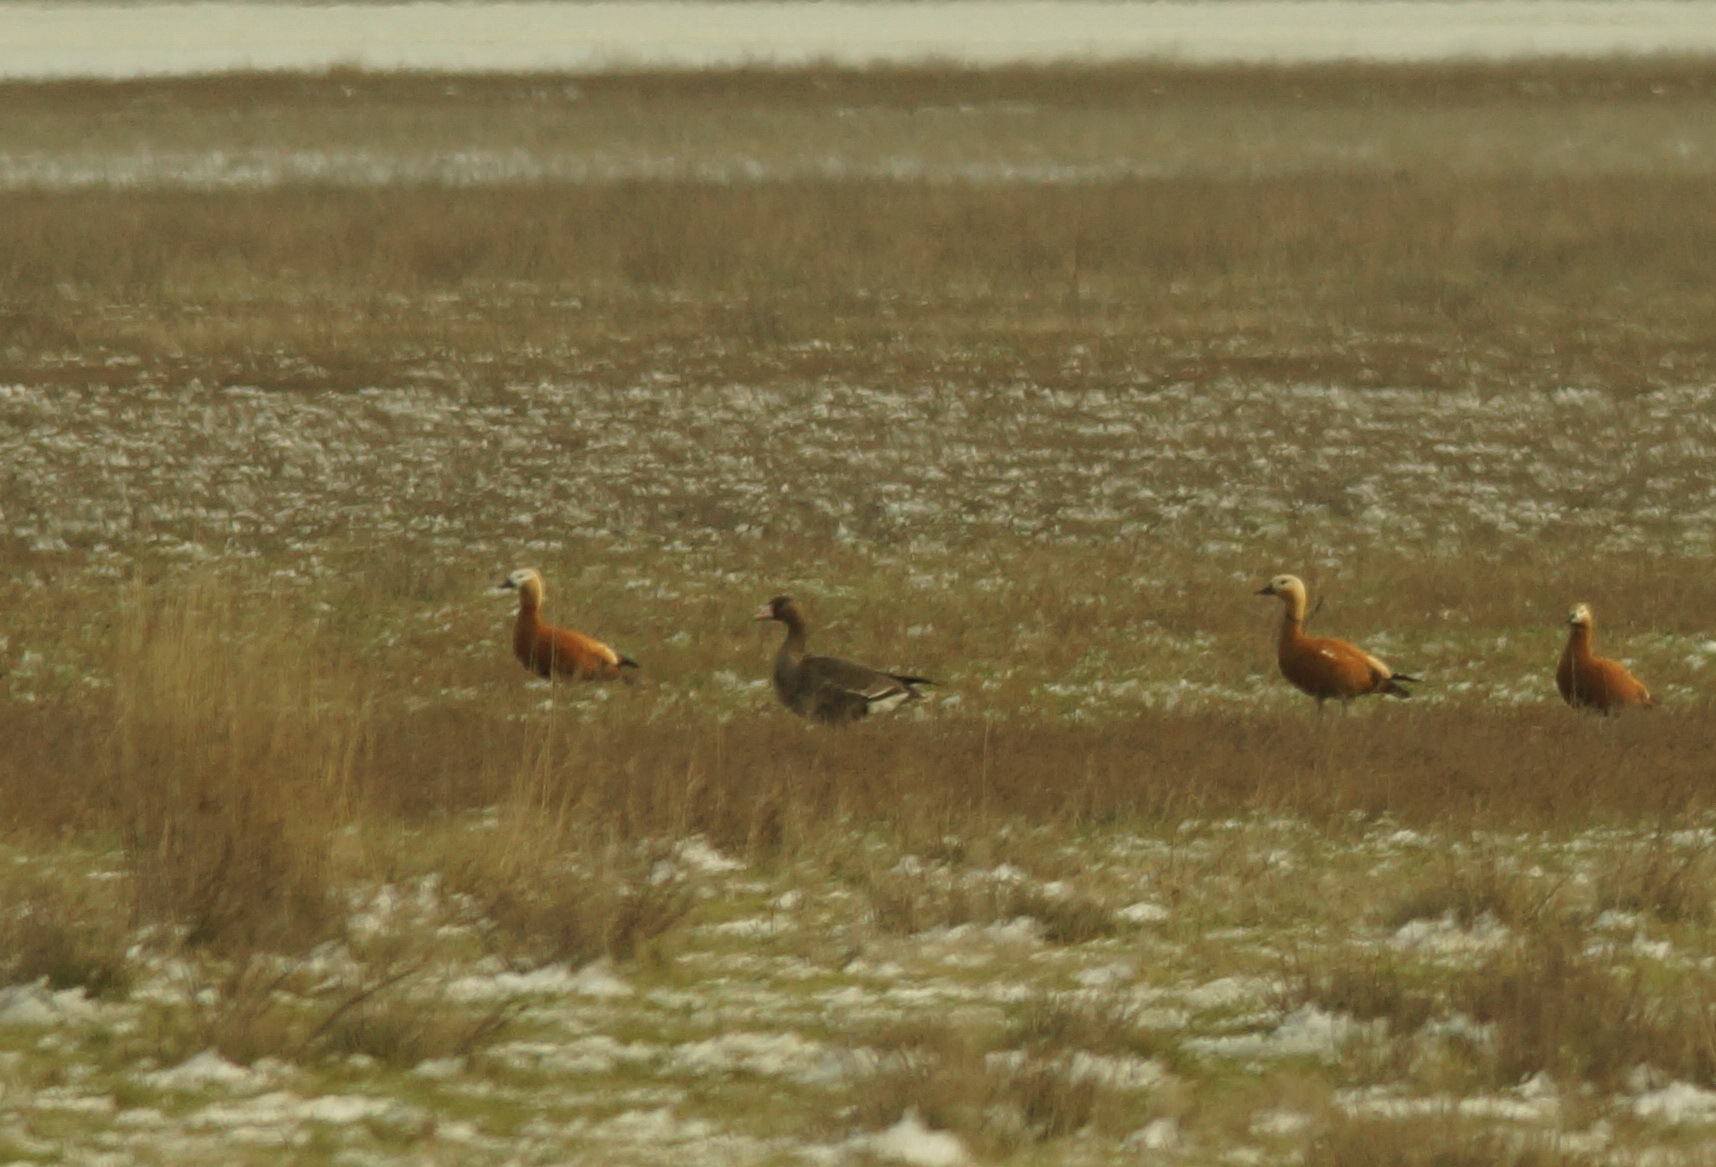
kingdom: Animalia
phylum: Chordata
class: Aves
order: Anseriformes
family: Anatidae
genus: Anser
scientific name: Anser albifrons
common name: Greater white-fronted goose
